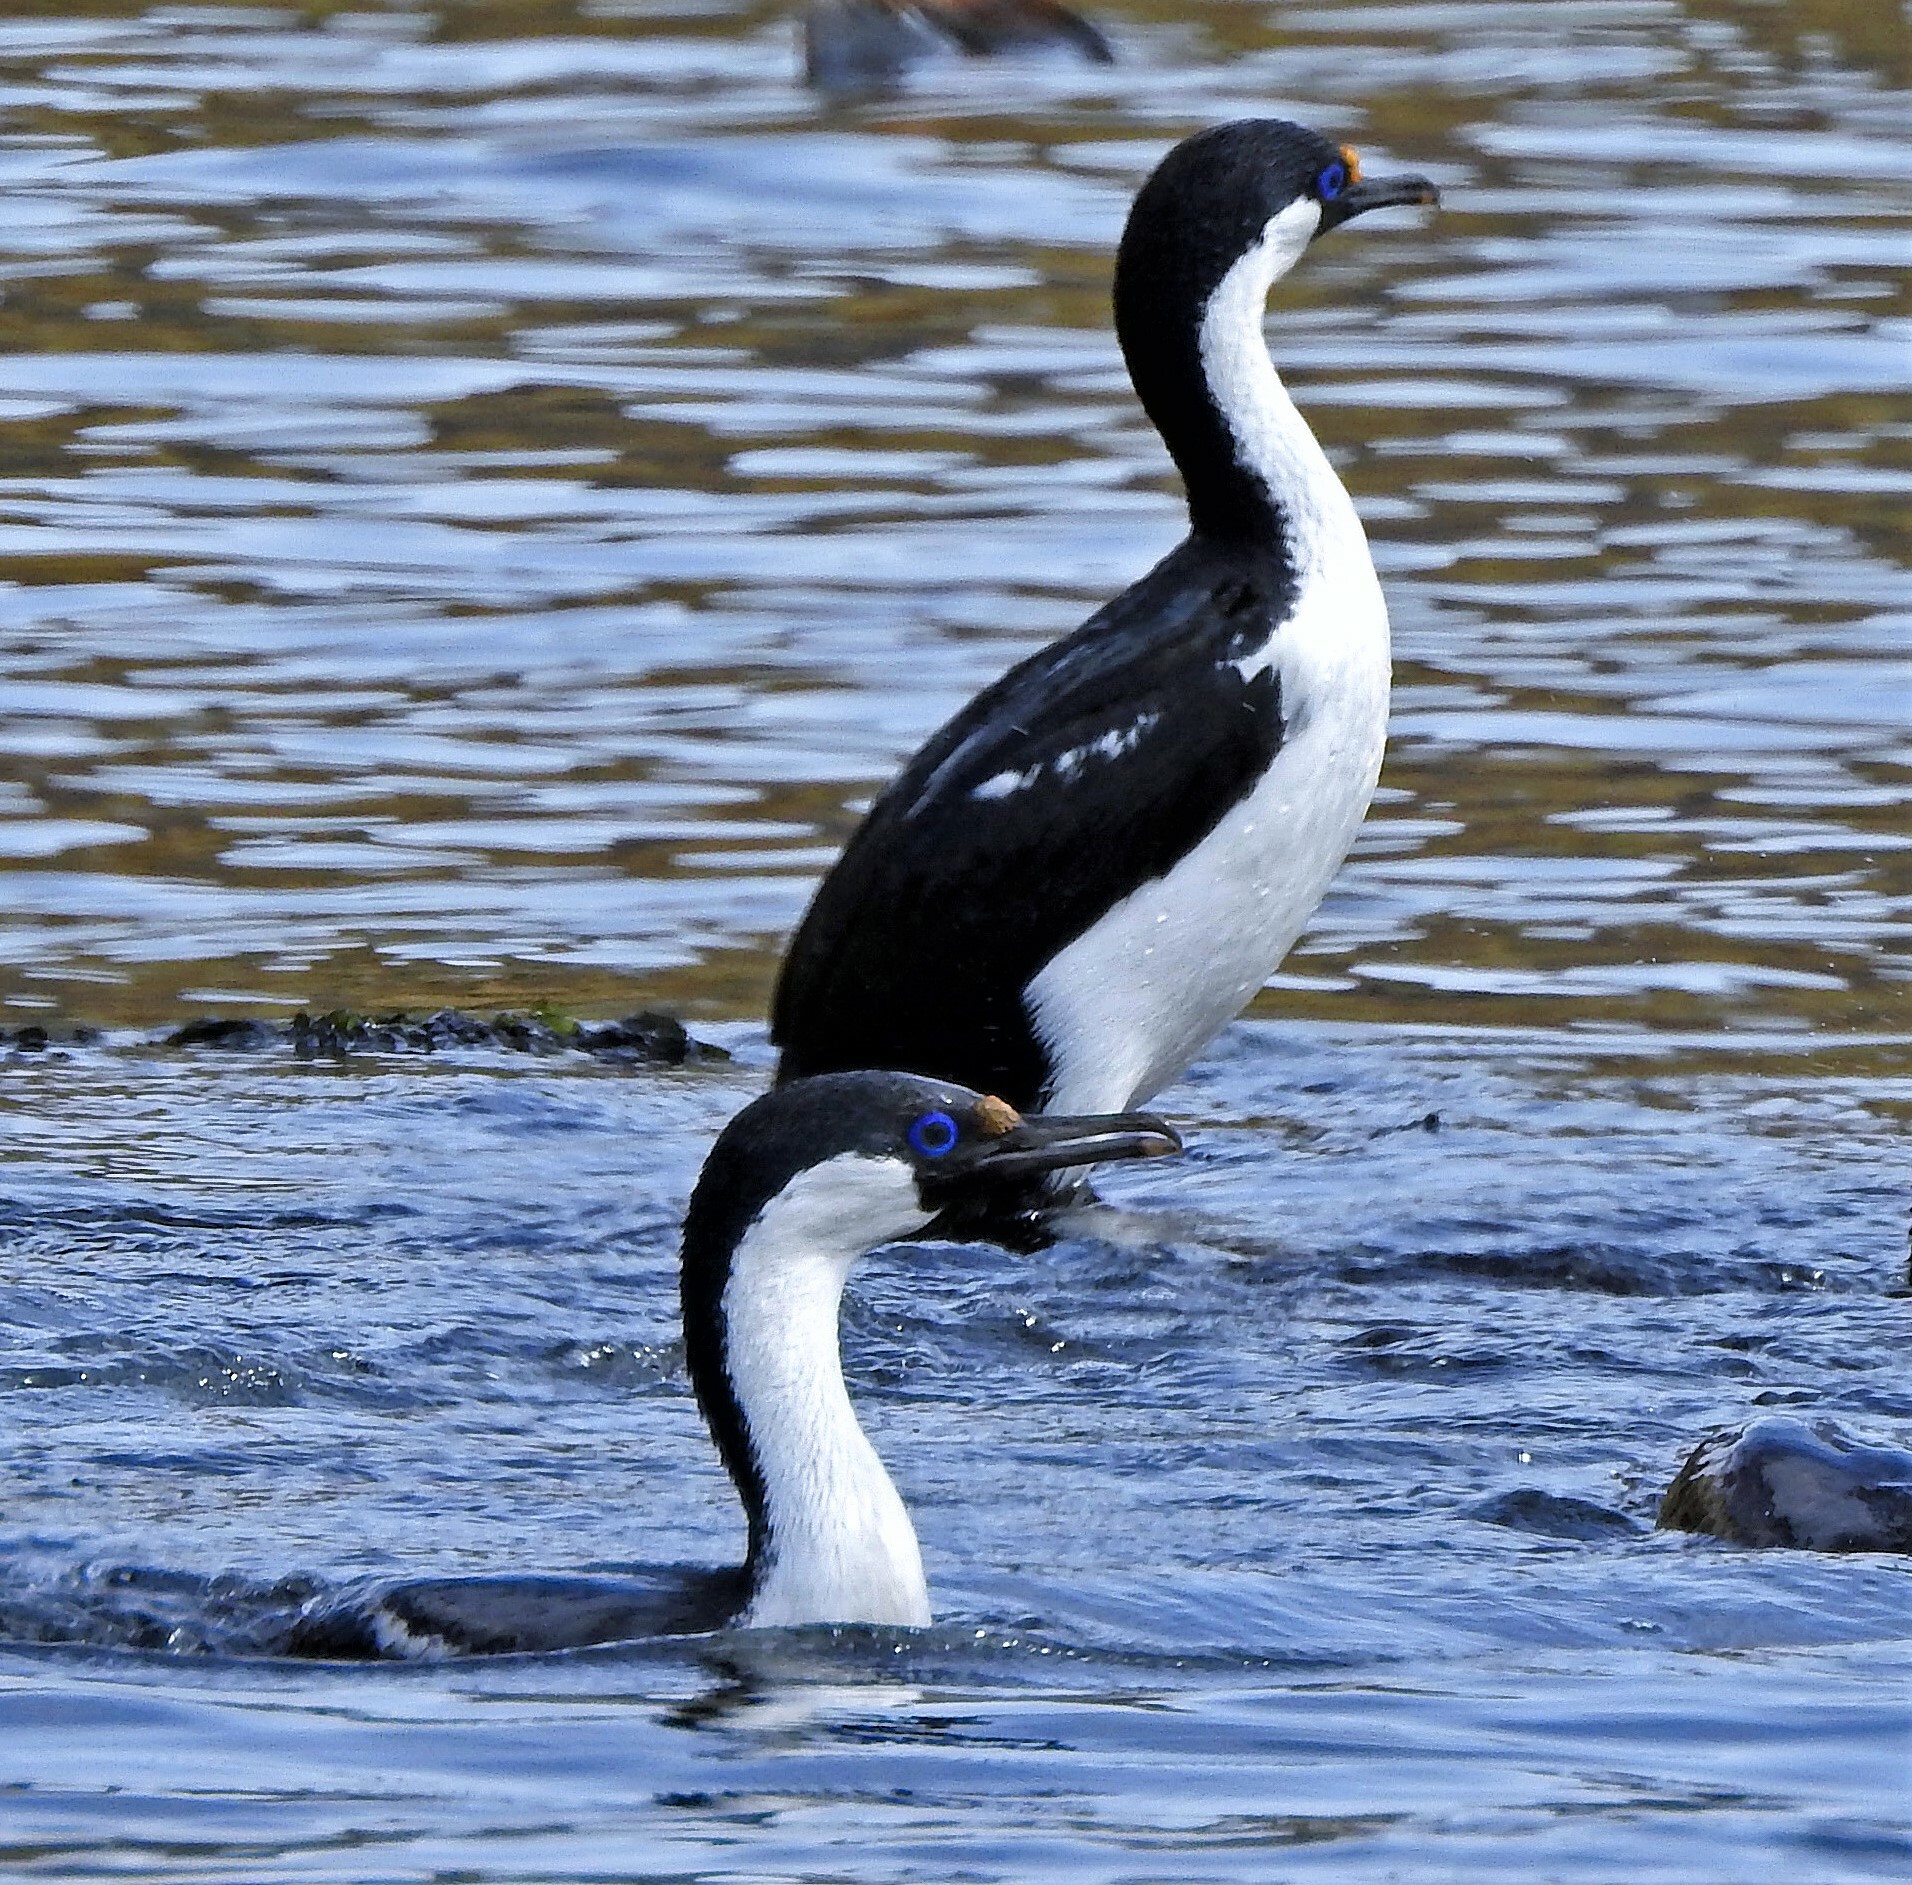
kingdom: Animalia
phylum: Chordata
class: Aves
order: Suliformes
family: Phalacrocoracidae
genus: Leucocarbo
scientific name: Leucocarbo atriceps
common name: Imperial shag
